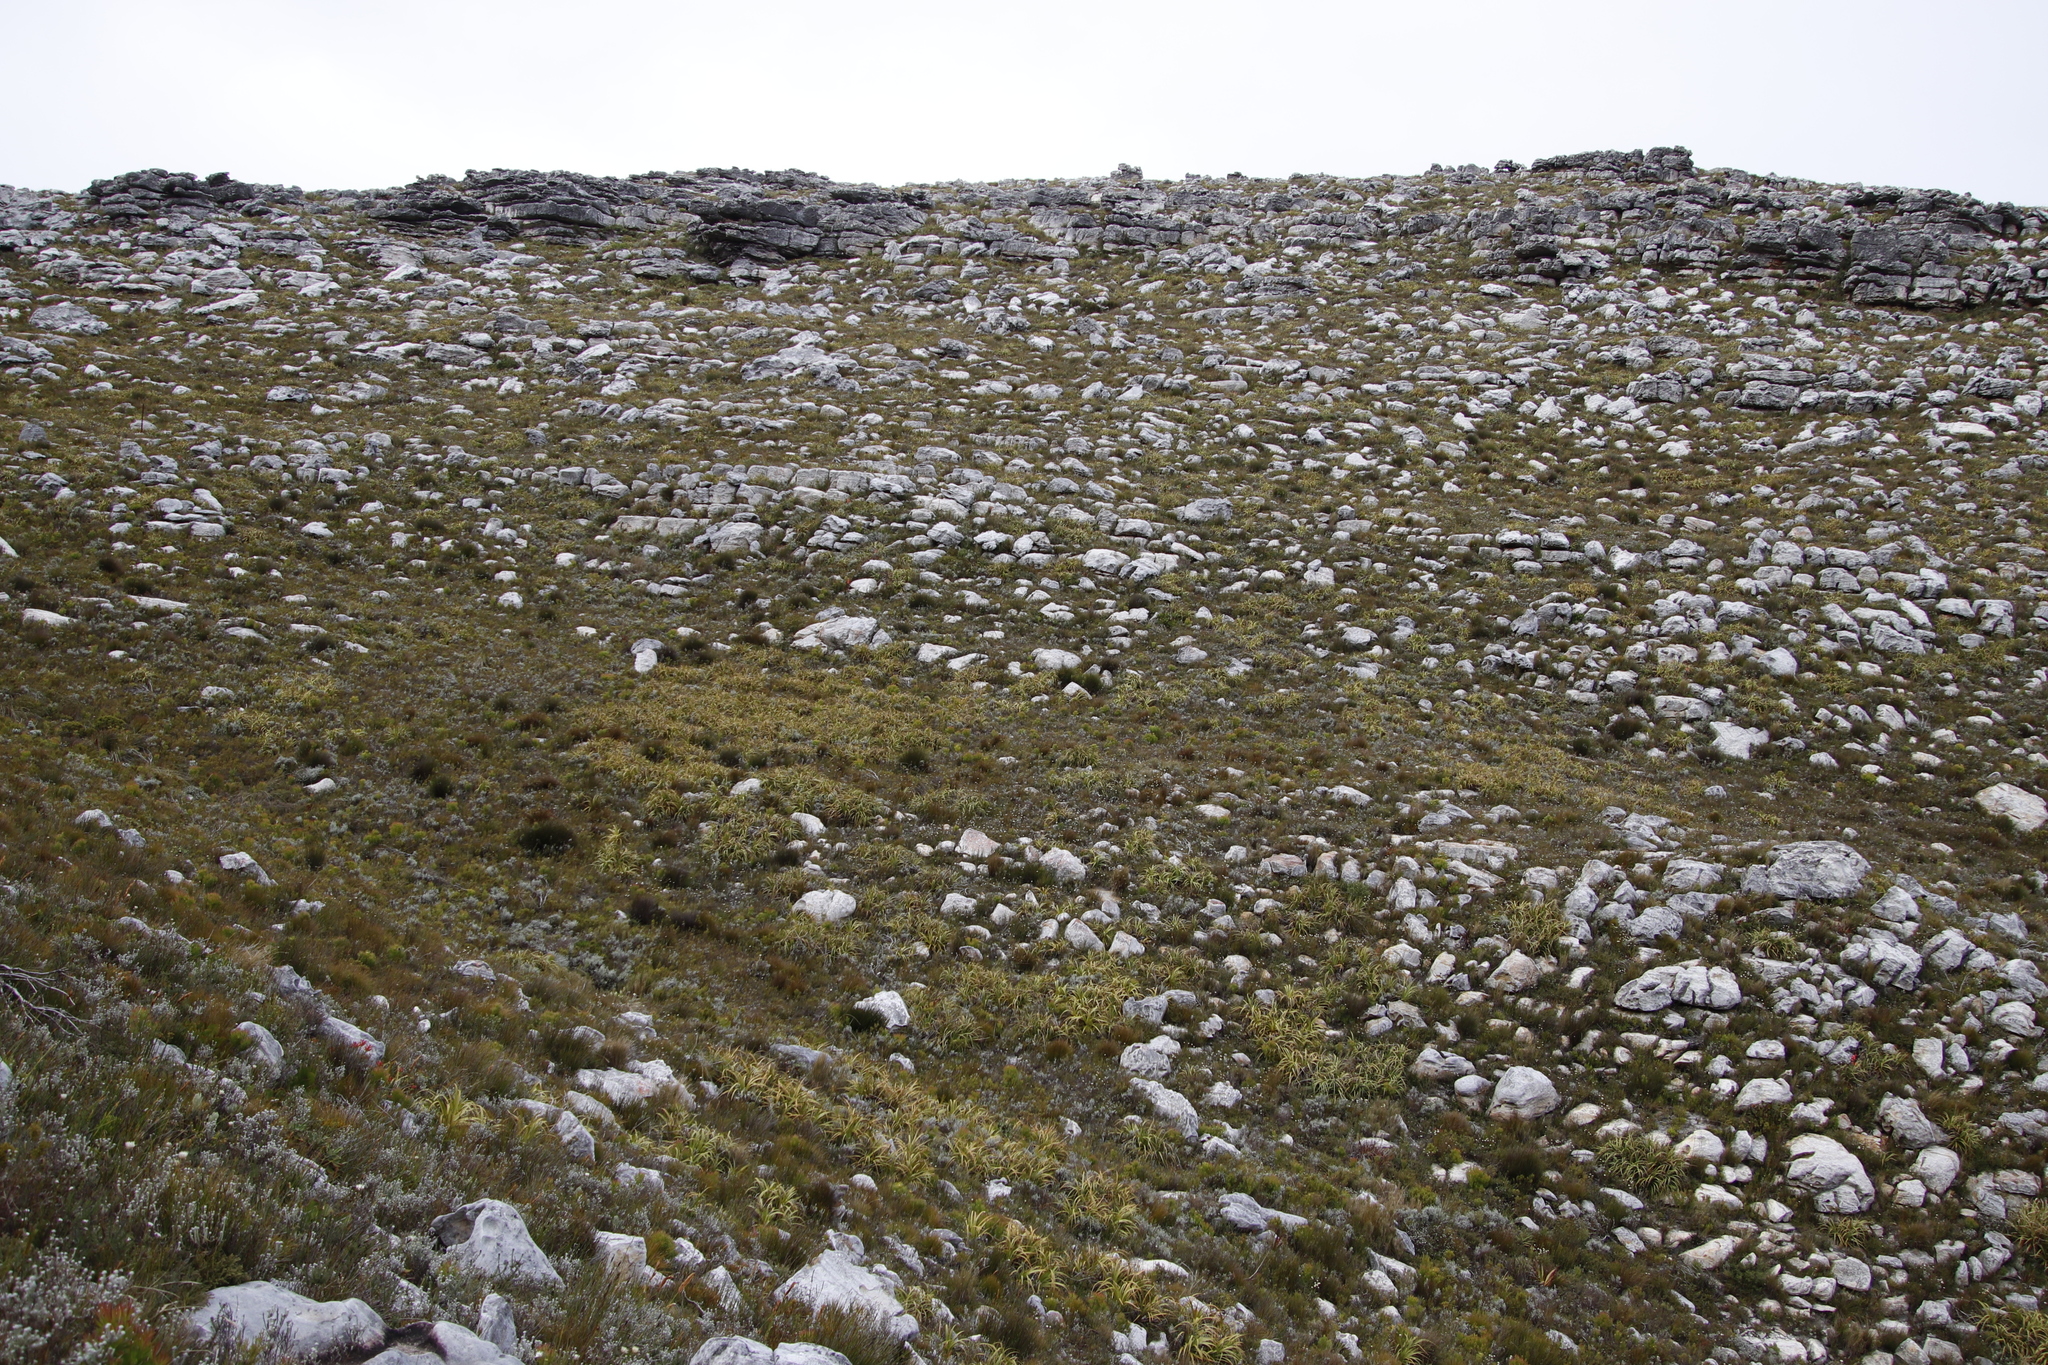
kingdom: Plantae
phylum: Tracheophyta
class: Liliopsida
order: Poales
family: Cyperaceae
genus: Tetraria
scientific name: Tetraria thermalis
